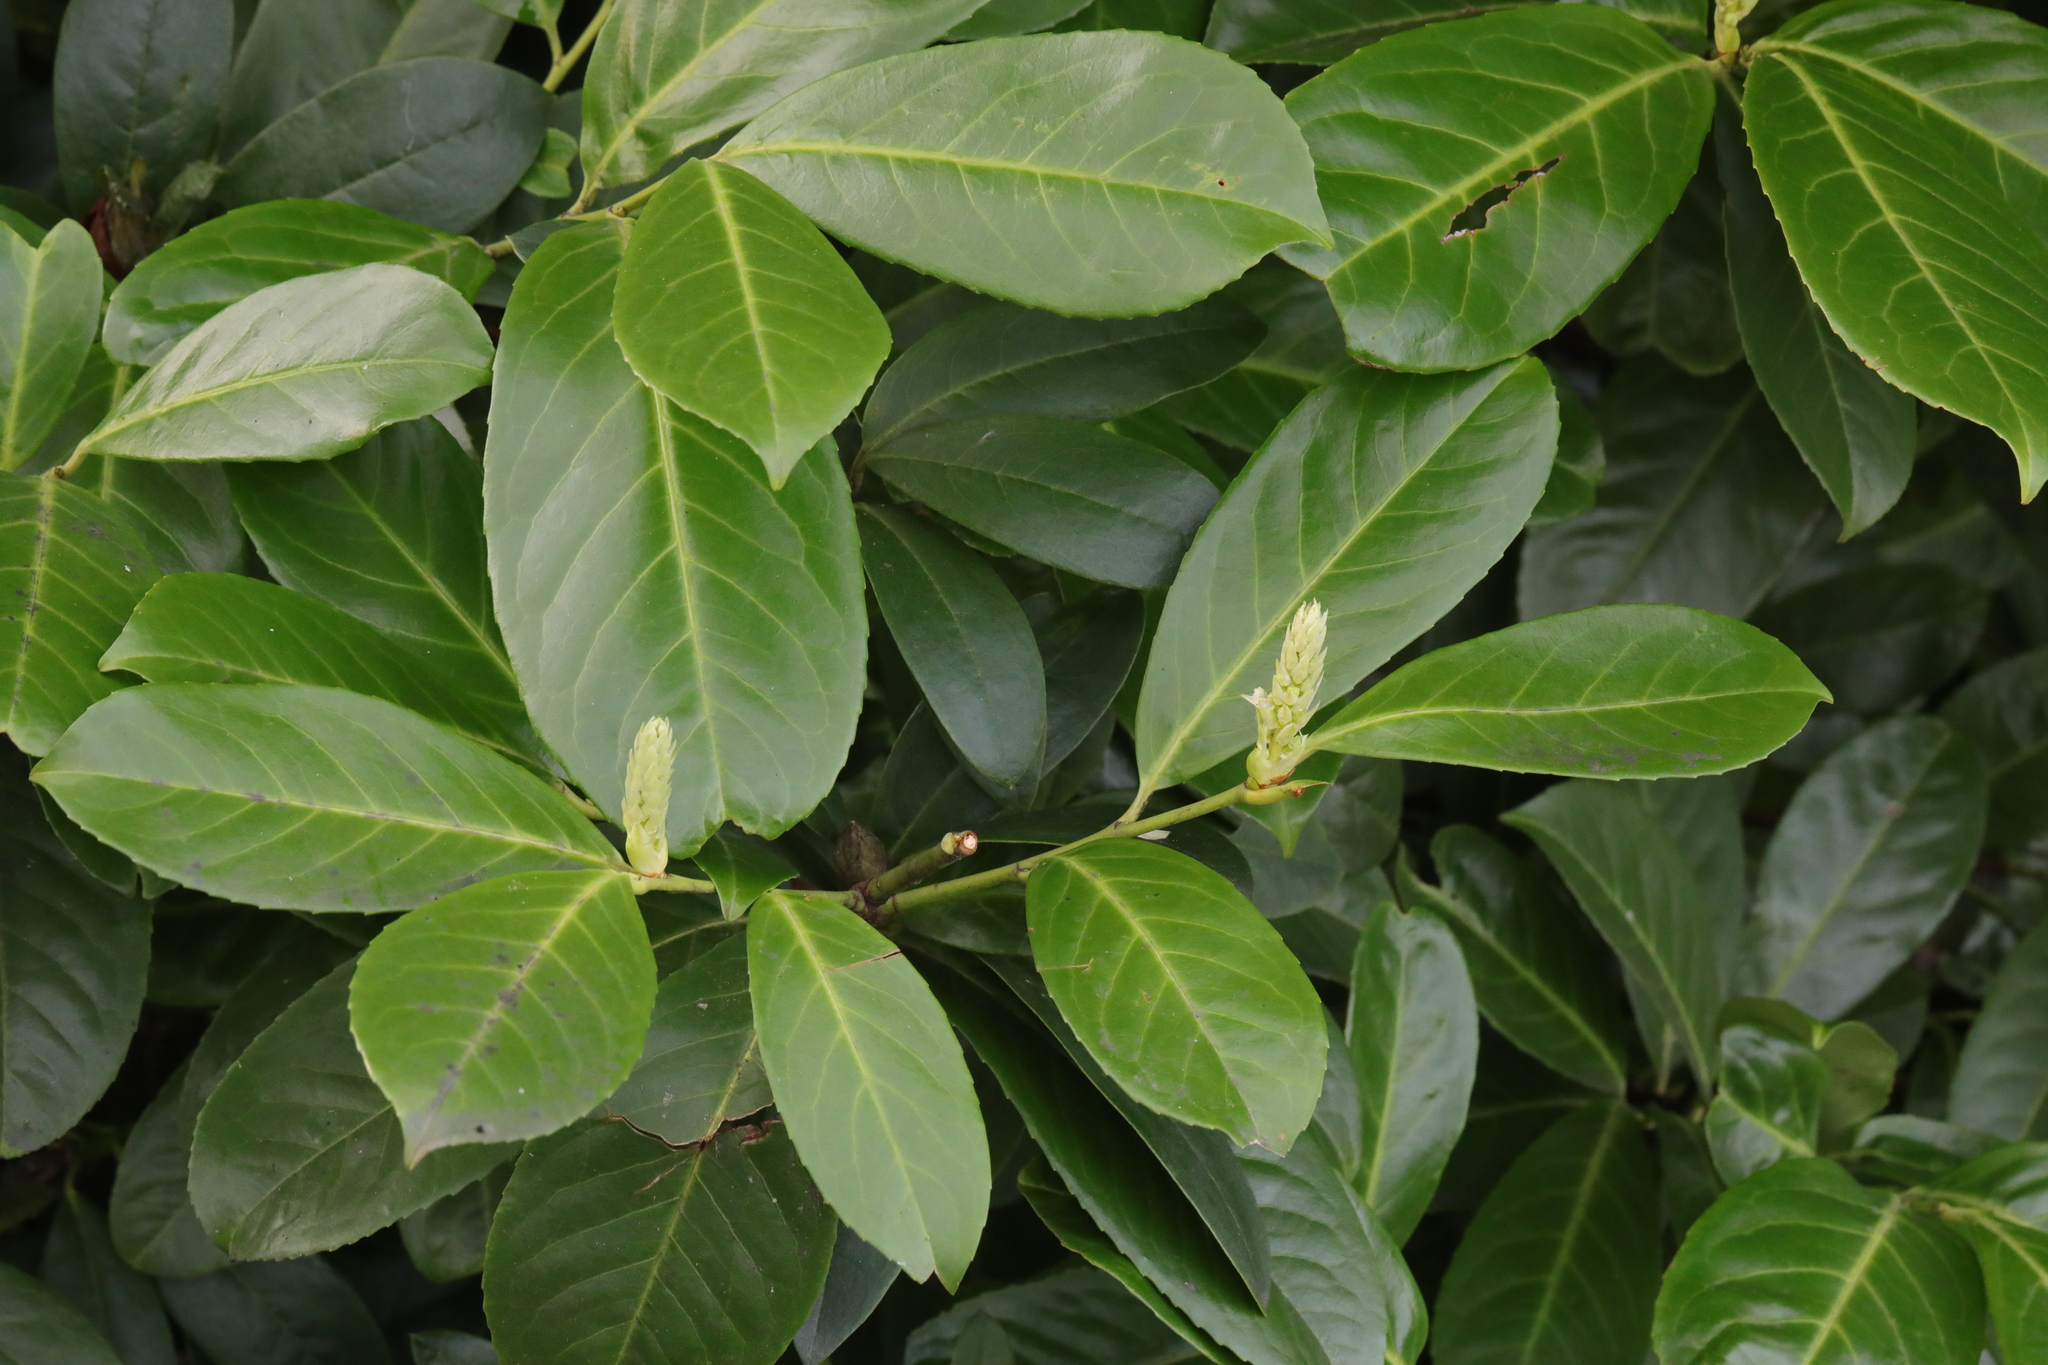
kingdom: Plantae
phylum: Tracheophyta
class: Magnoliopsida
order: Rosales
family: Rosaceae
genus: Prunus
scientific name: Prunus laurocerasus
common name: Cherry laurel
